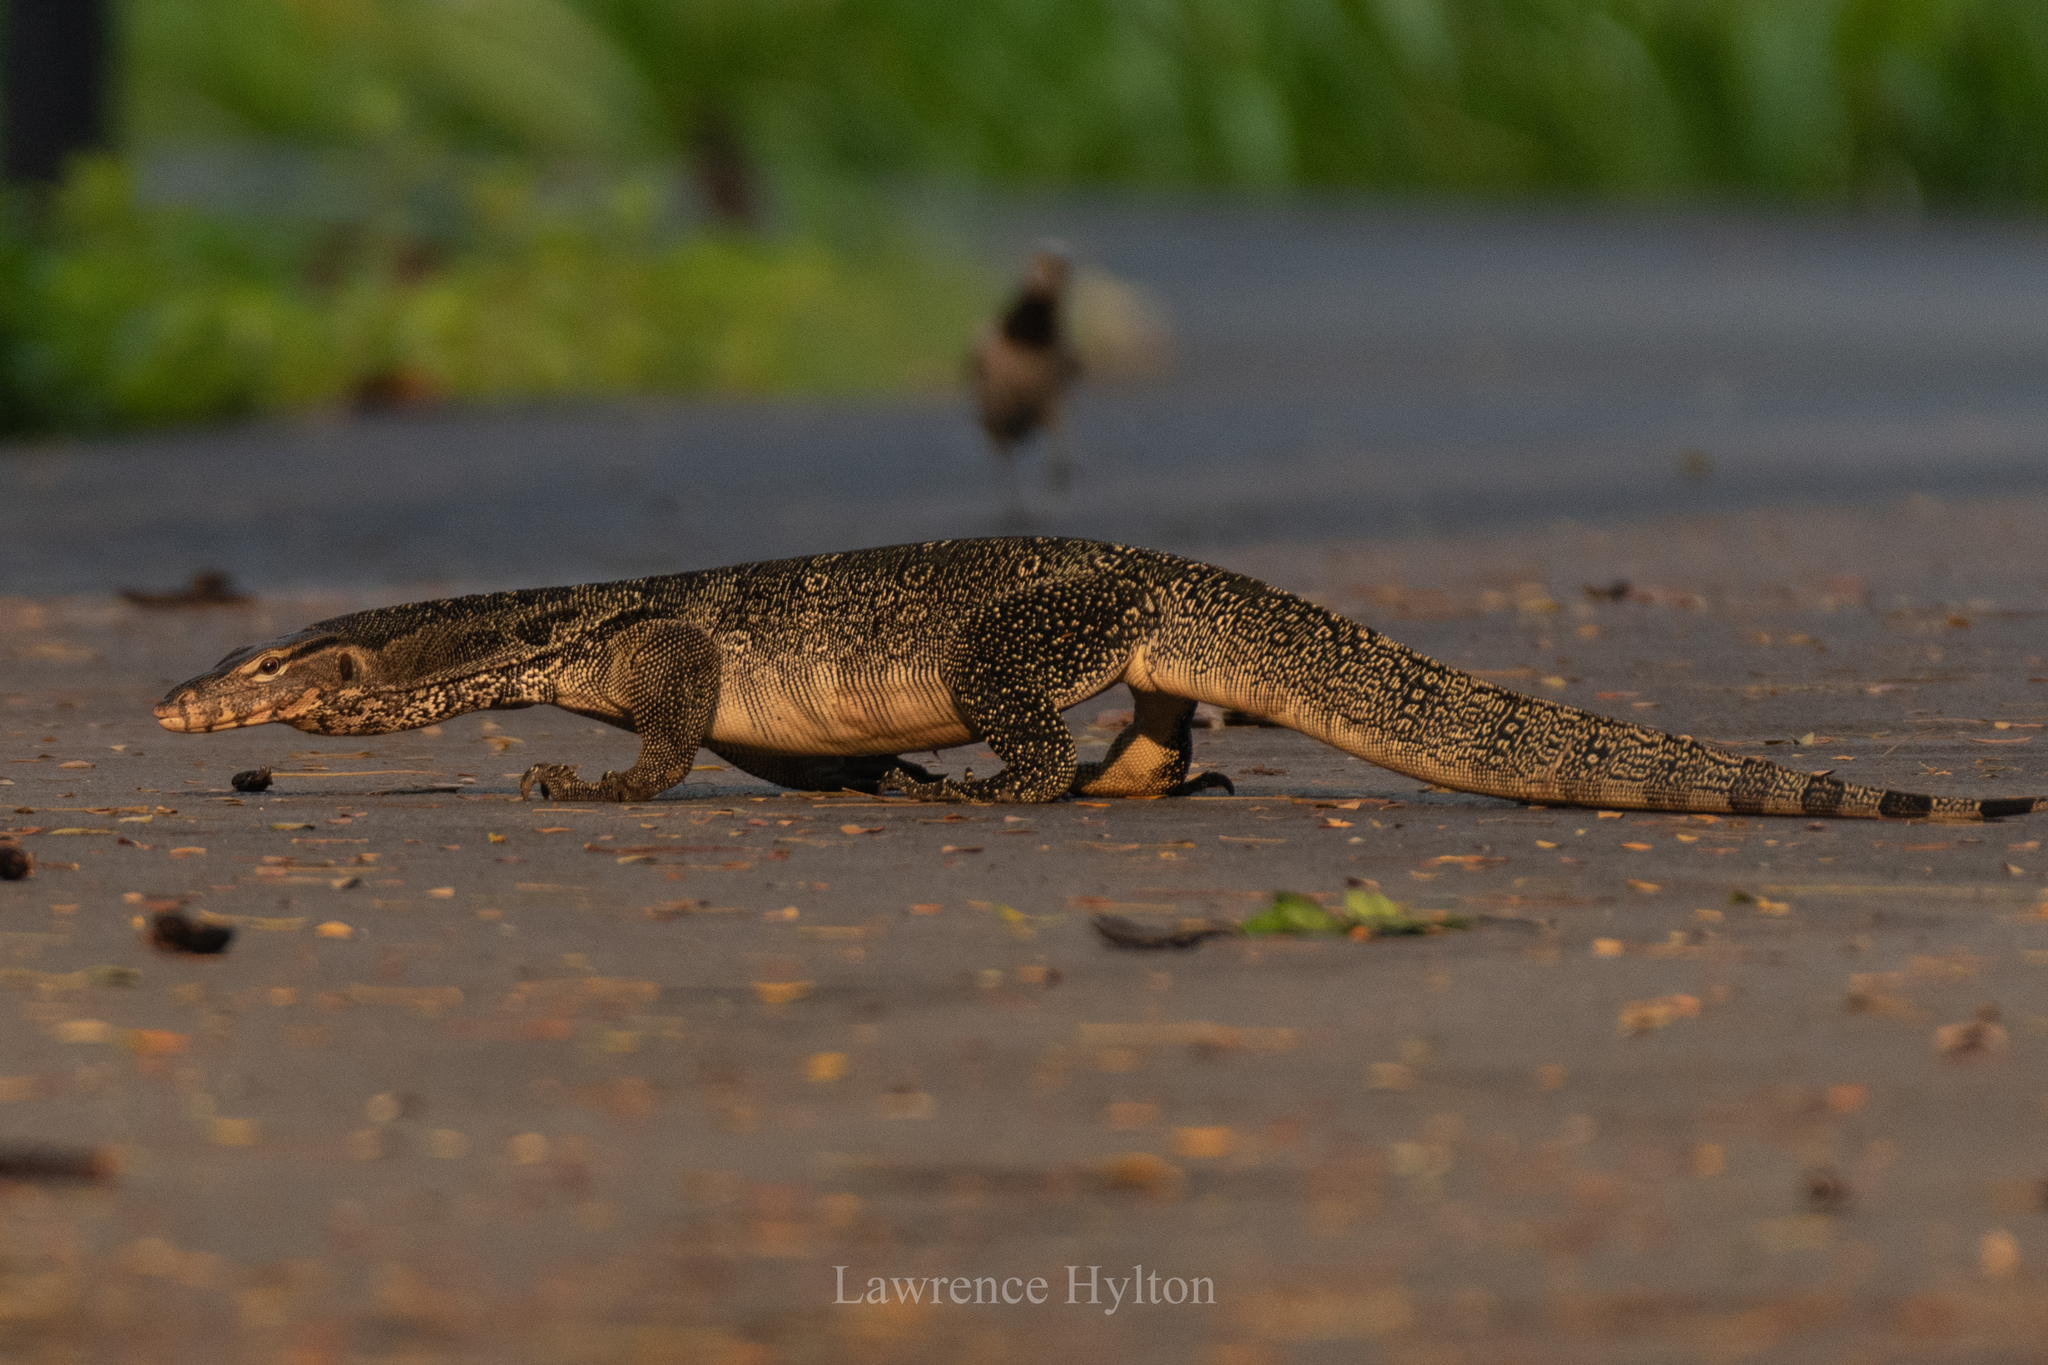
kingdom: Animalia
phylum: Chordata
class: Squamata
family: Varanidae
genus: Varanus
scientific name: Varanus salvator
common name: Common water monitor
